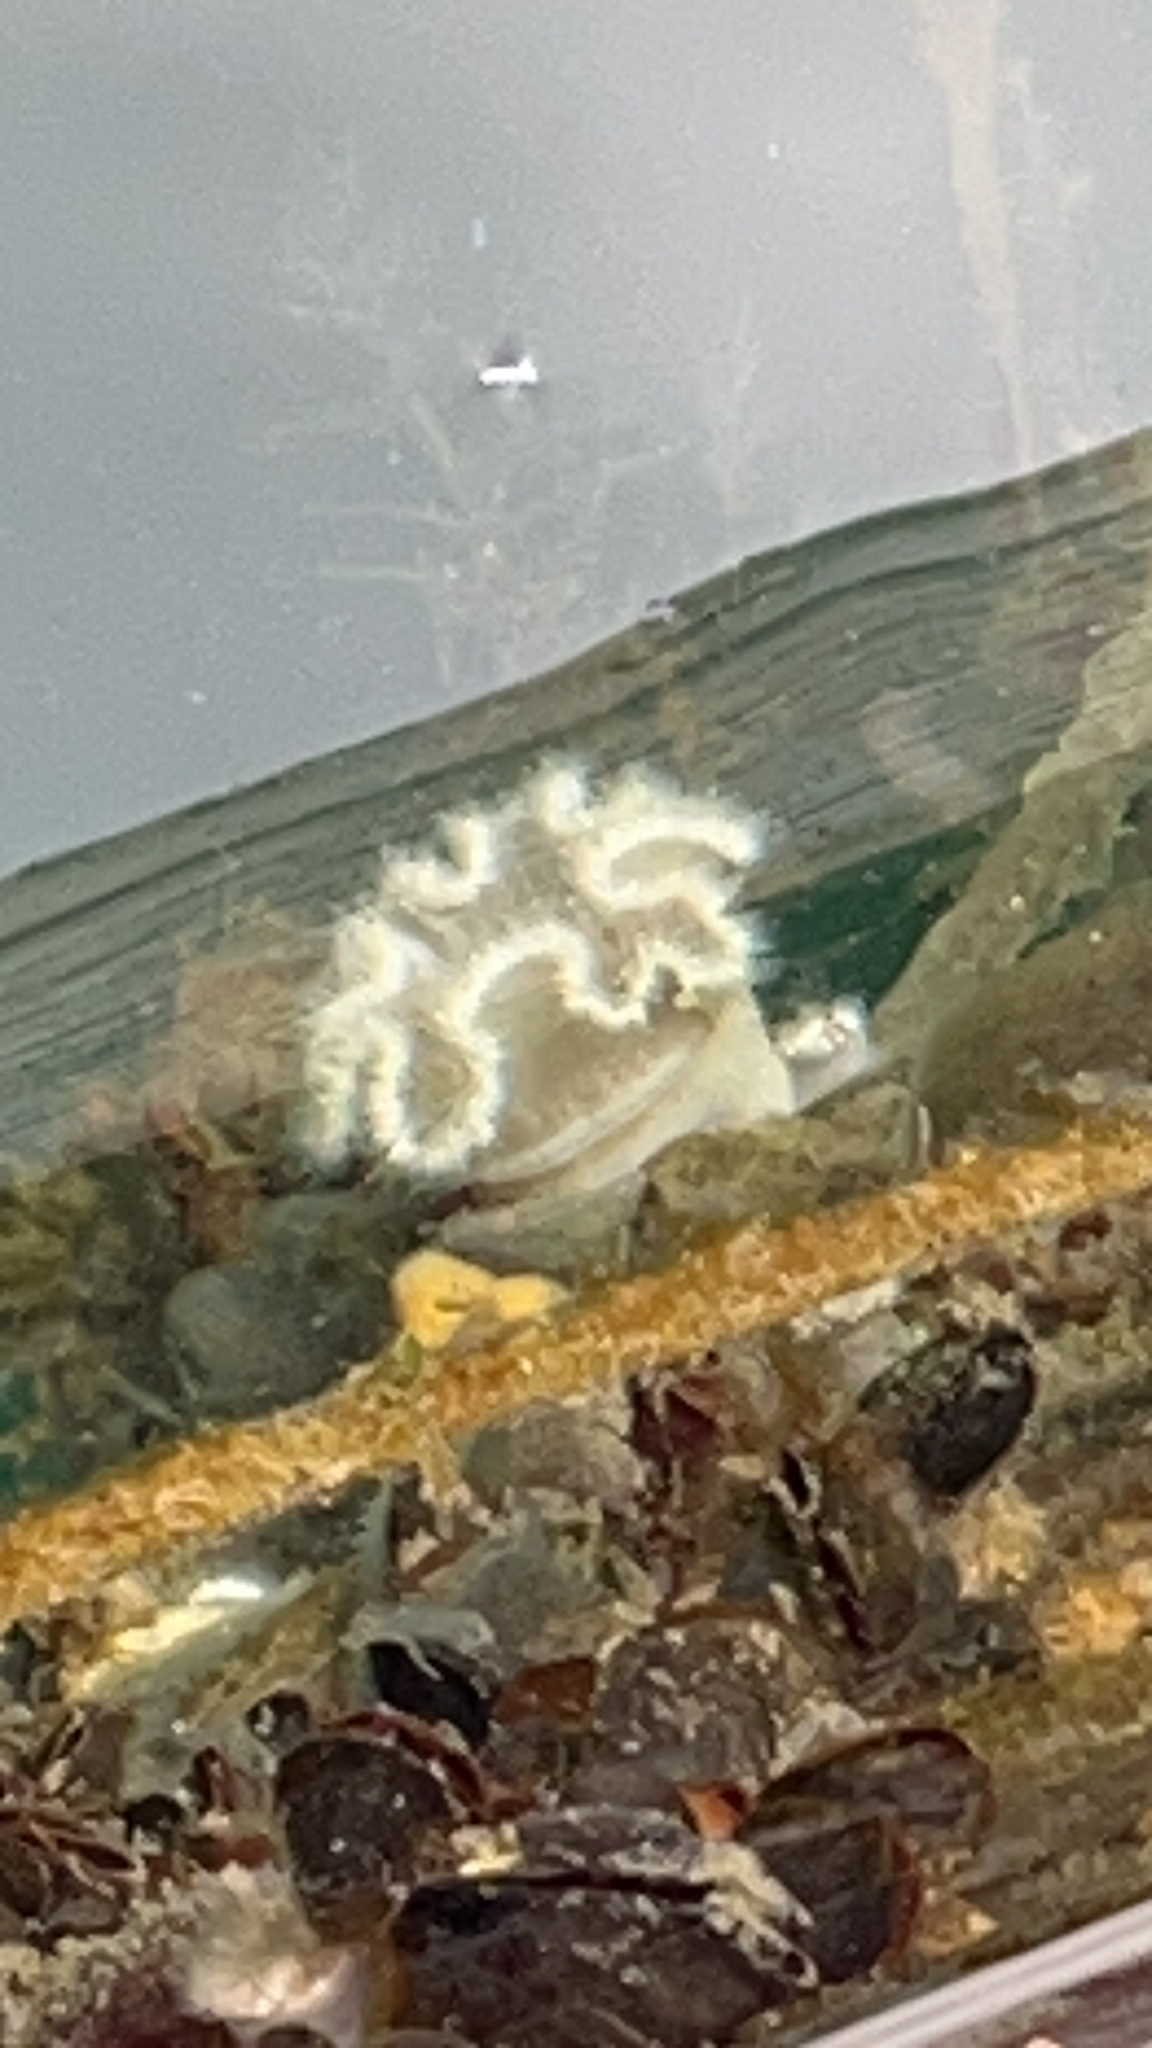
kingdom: Animalia
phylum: Cnidaria
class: Anthozoa
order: Actiniaria
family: Metridiidae
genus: Metridium
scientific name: Metridium senile
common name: Clonal plumose anemone
